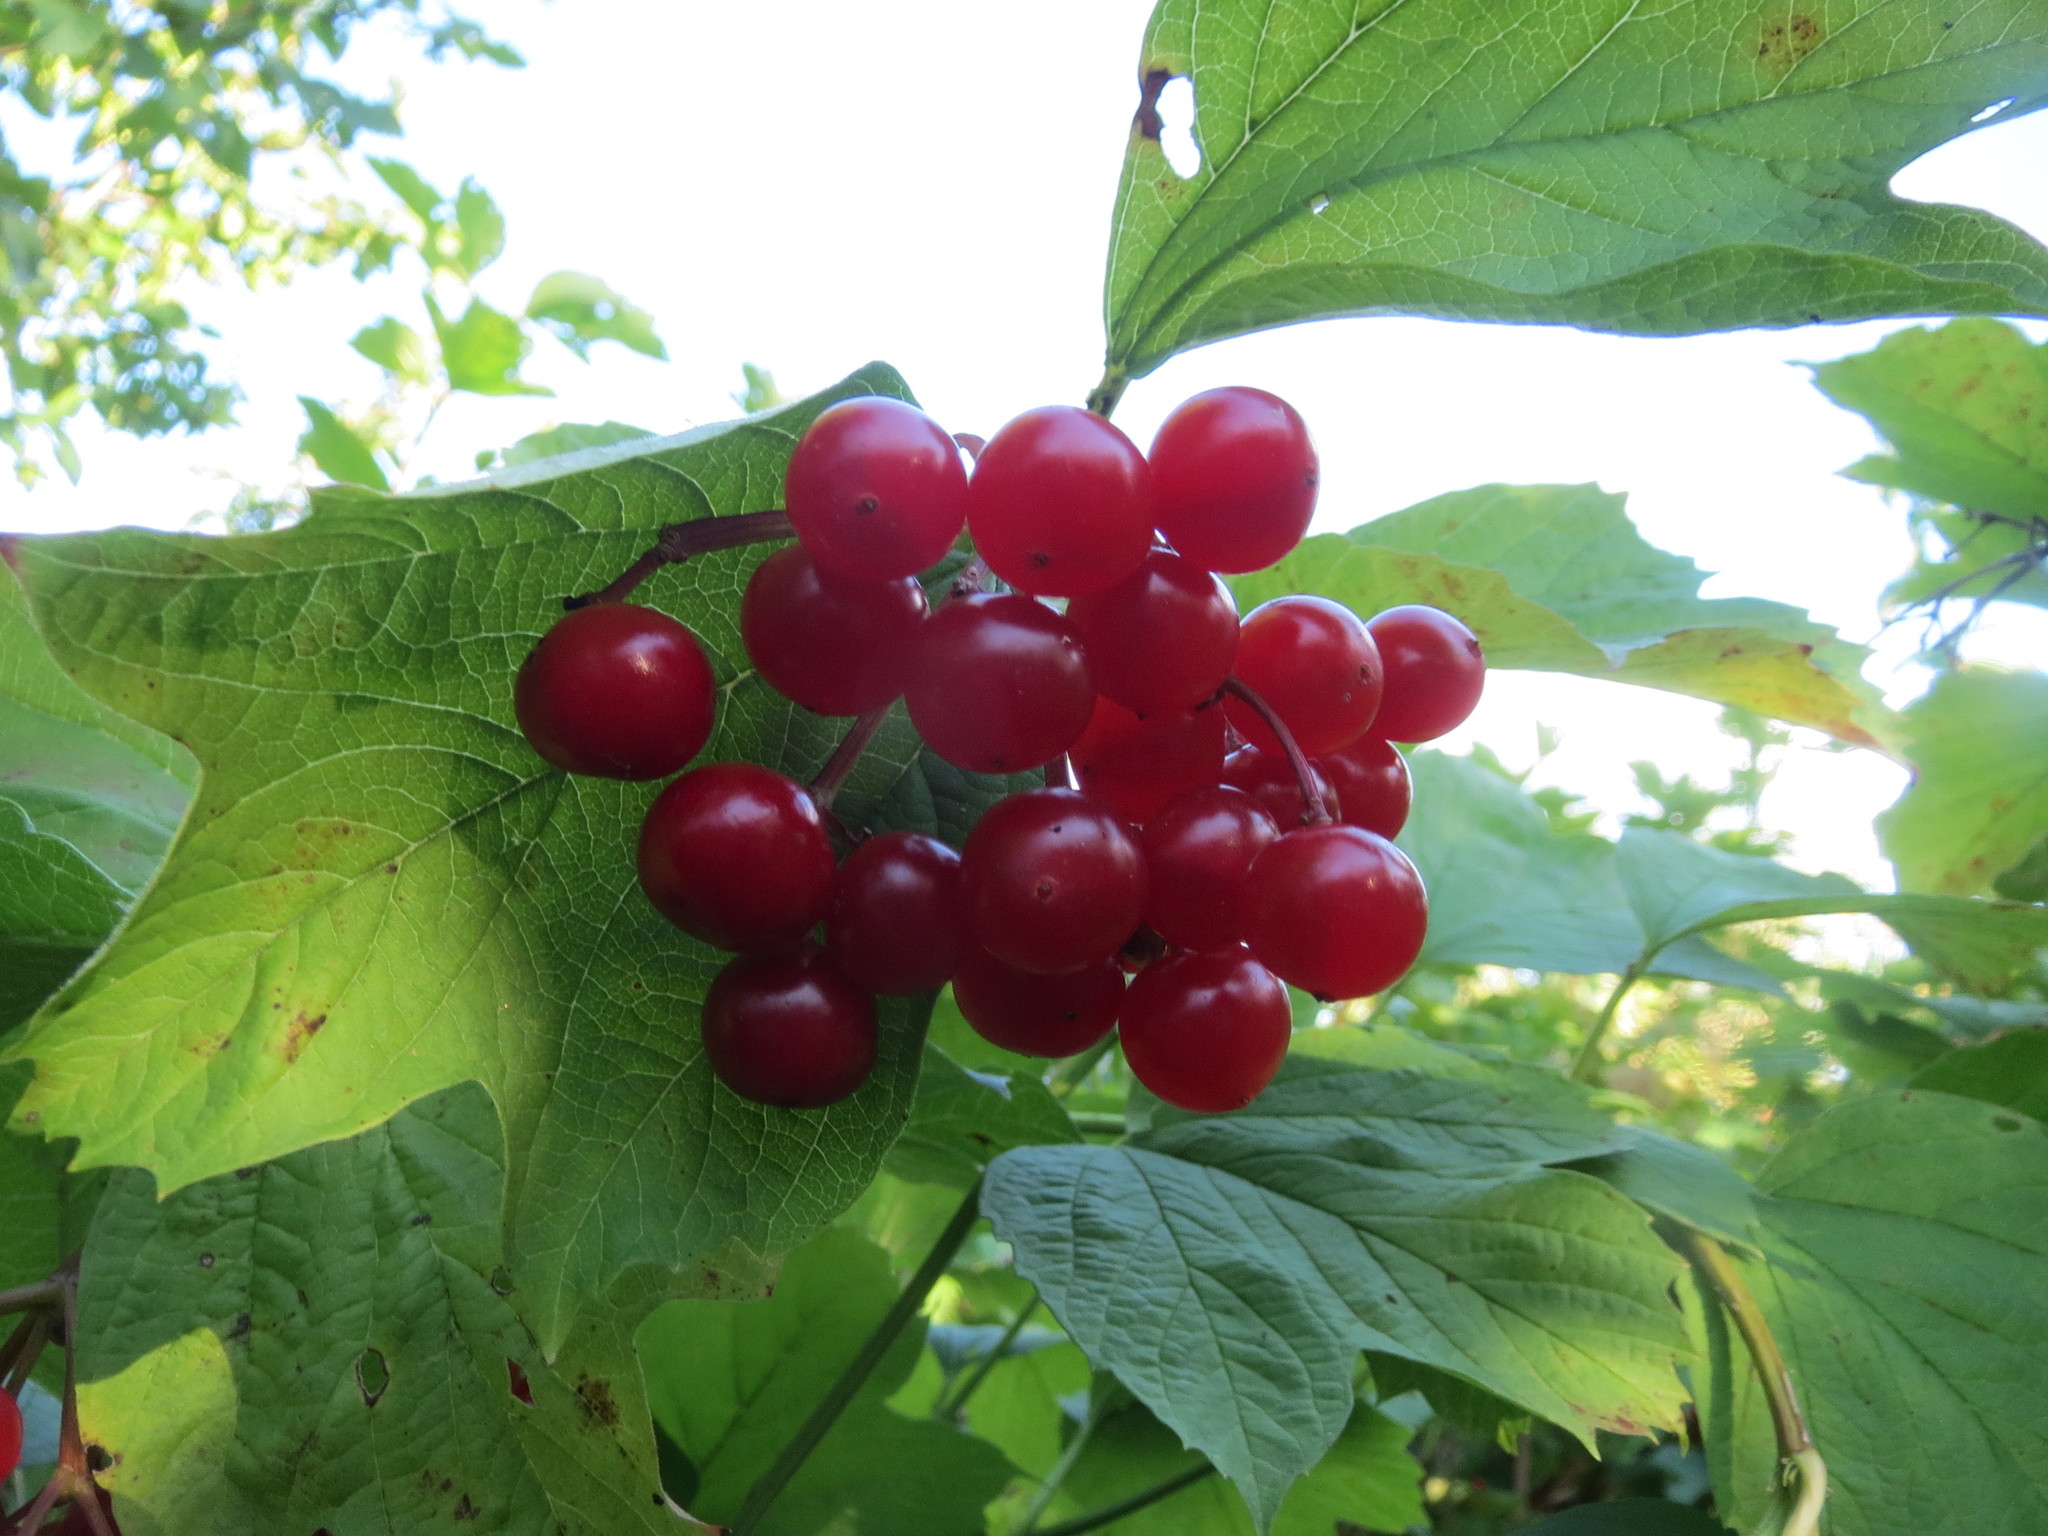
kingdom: Plantae
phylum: Tracheophyta
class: Magnoliopsida
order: Dipsacales
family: Viburnaceae
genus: Viburnum
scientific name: Viburnum opulus
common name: Guelder-rose
